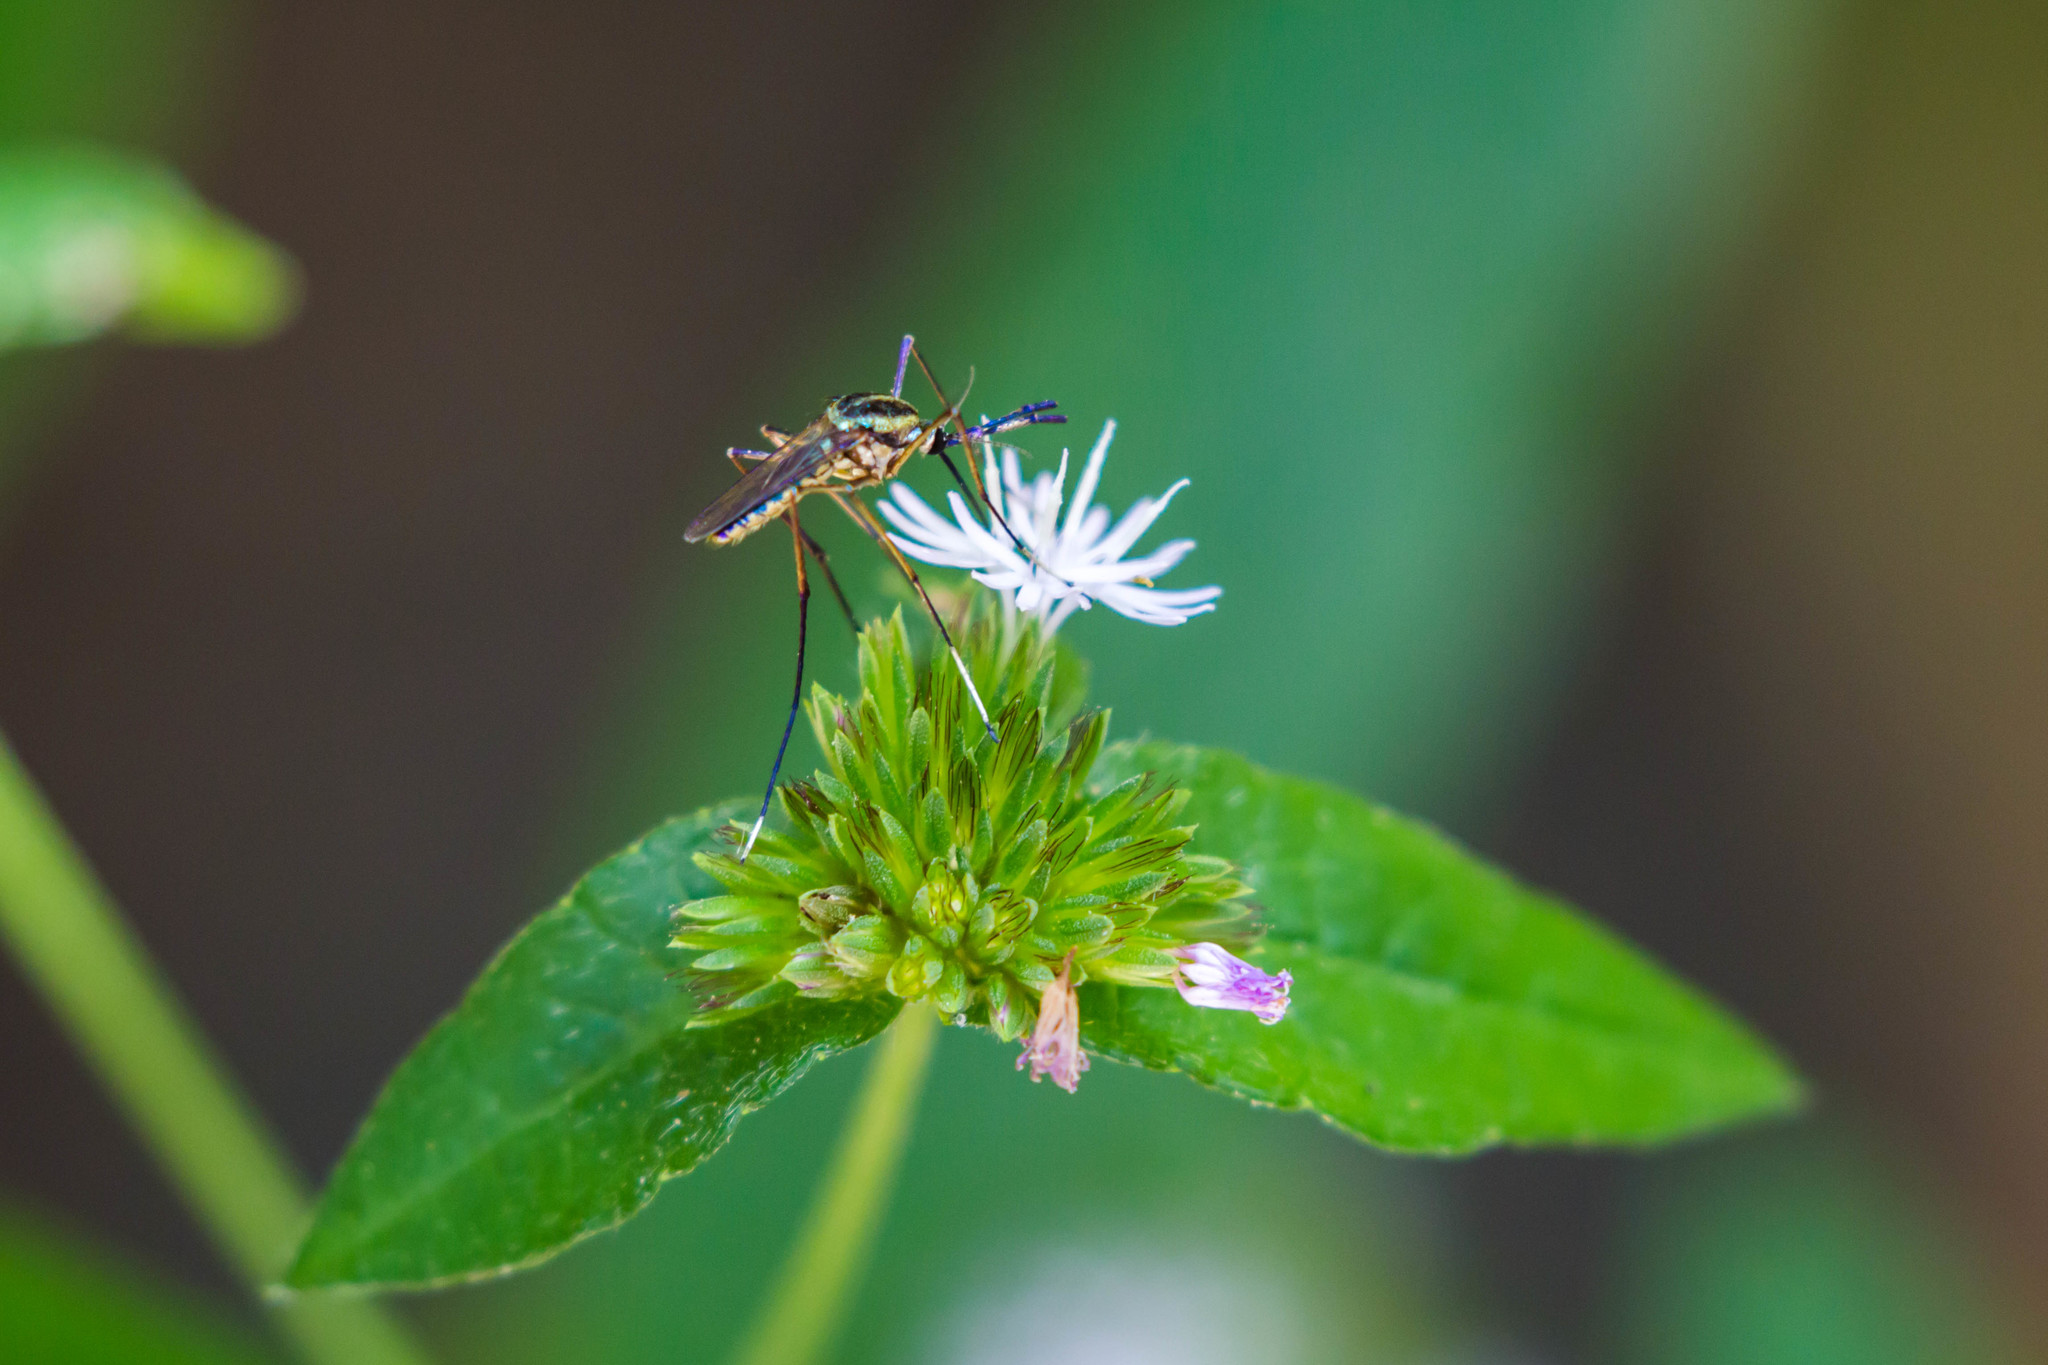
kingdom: Animalia
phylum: Arthropoda
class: Insecta
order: Diptera
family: Culicidae
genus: Toxorhynchites
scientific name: Toxorhynchites rutilus
